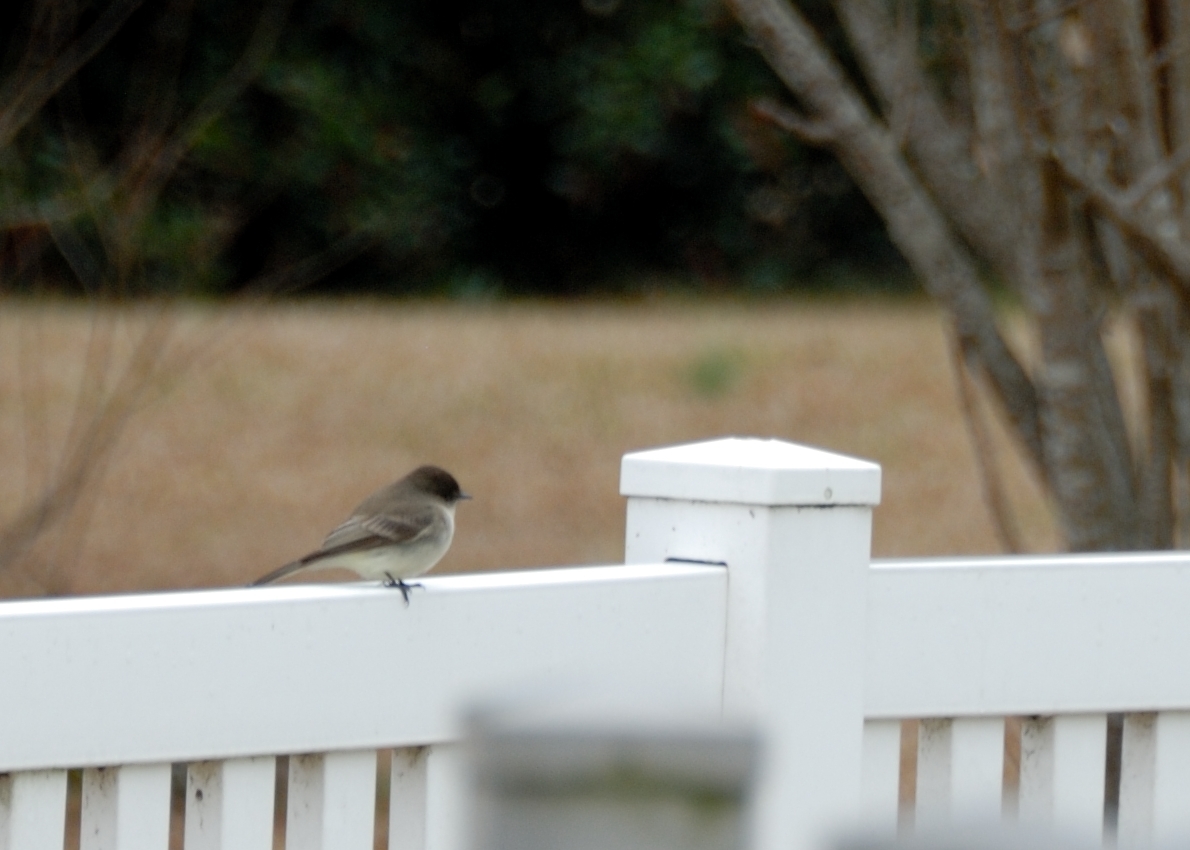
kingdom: Animalia
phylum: Chordata
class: Aves
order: Passeriformes
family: Tyrannidae
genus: Sayornis
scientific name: Sayornis phoebe
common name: Eastern phoebe
